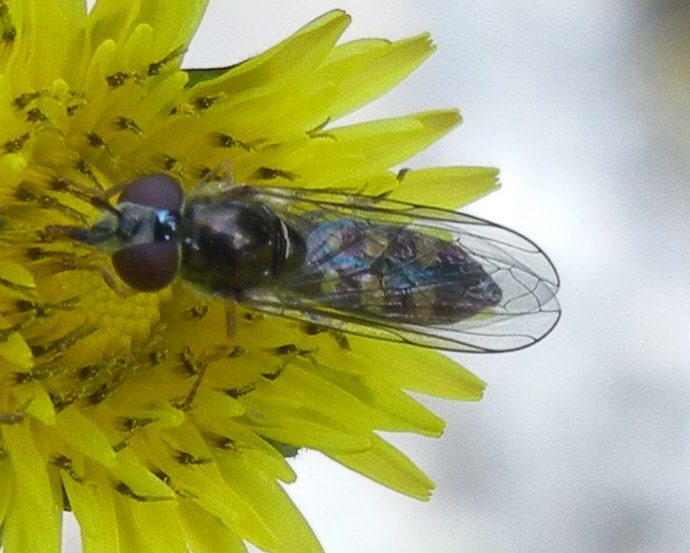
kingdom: Animalia
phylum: Arthropoda
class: Insecta
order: Diptera
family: Syrphidae
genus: Platycheirus
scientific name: Platycheirus
